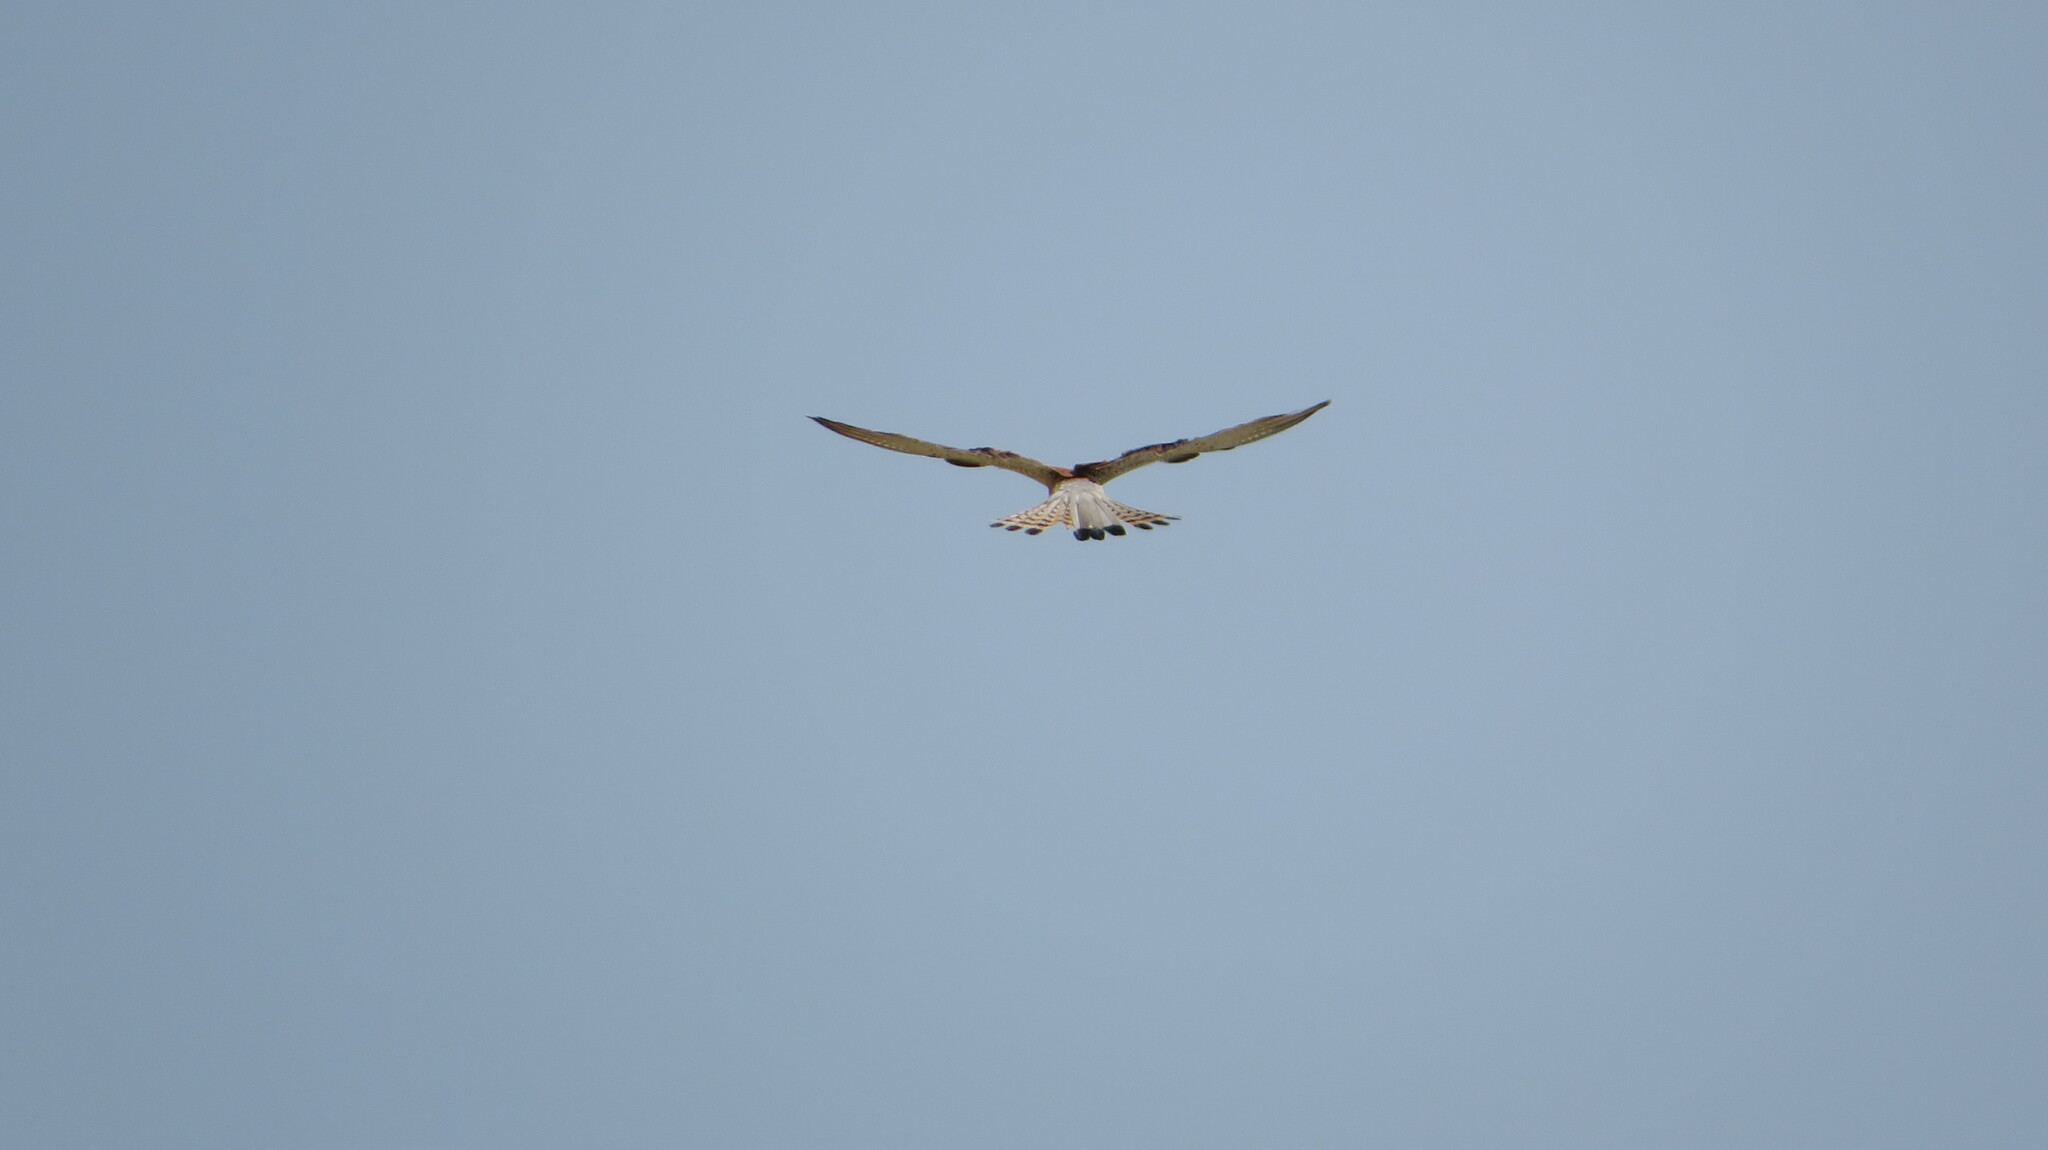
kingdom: Animalia
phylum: Chordata
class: Aves
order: Falconiformes
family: Falconidae
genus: Falco
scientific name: Falco tinnunculus
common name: Common kestrel
